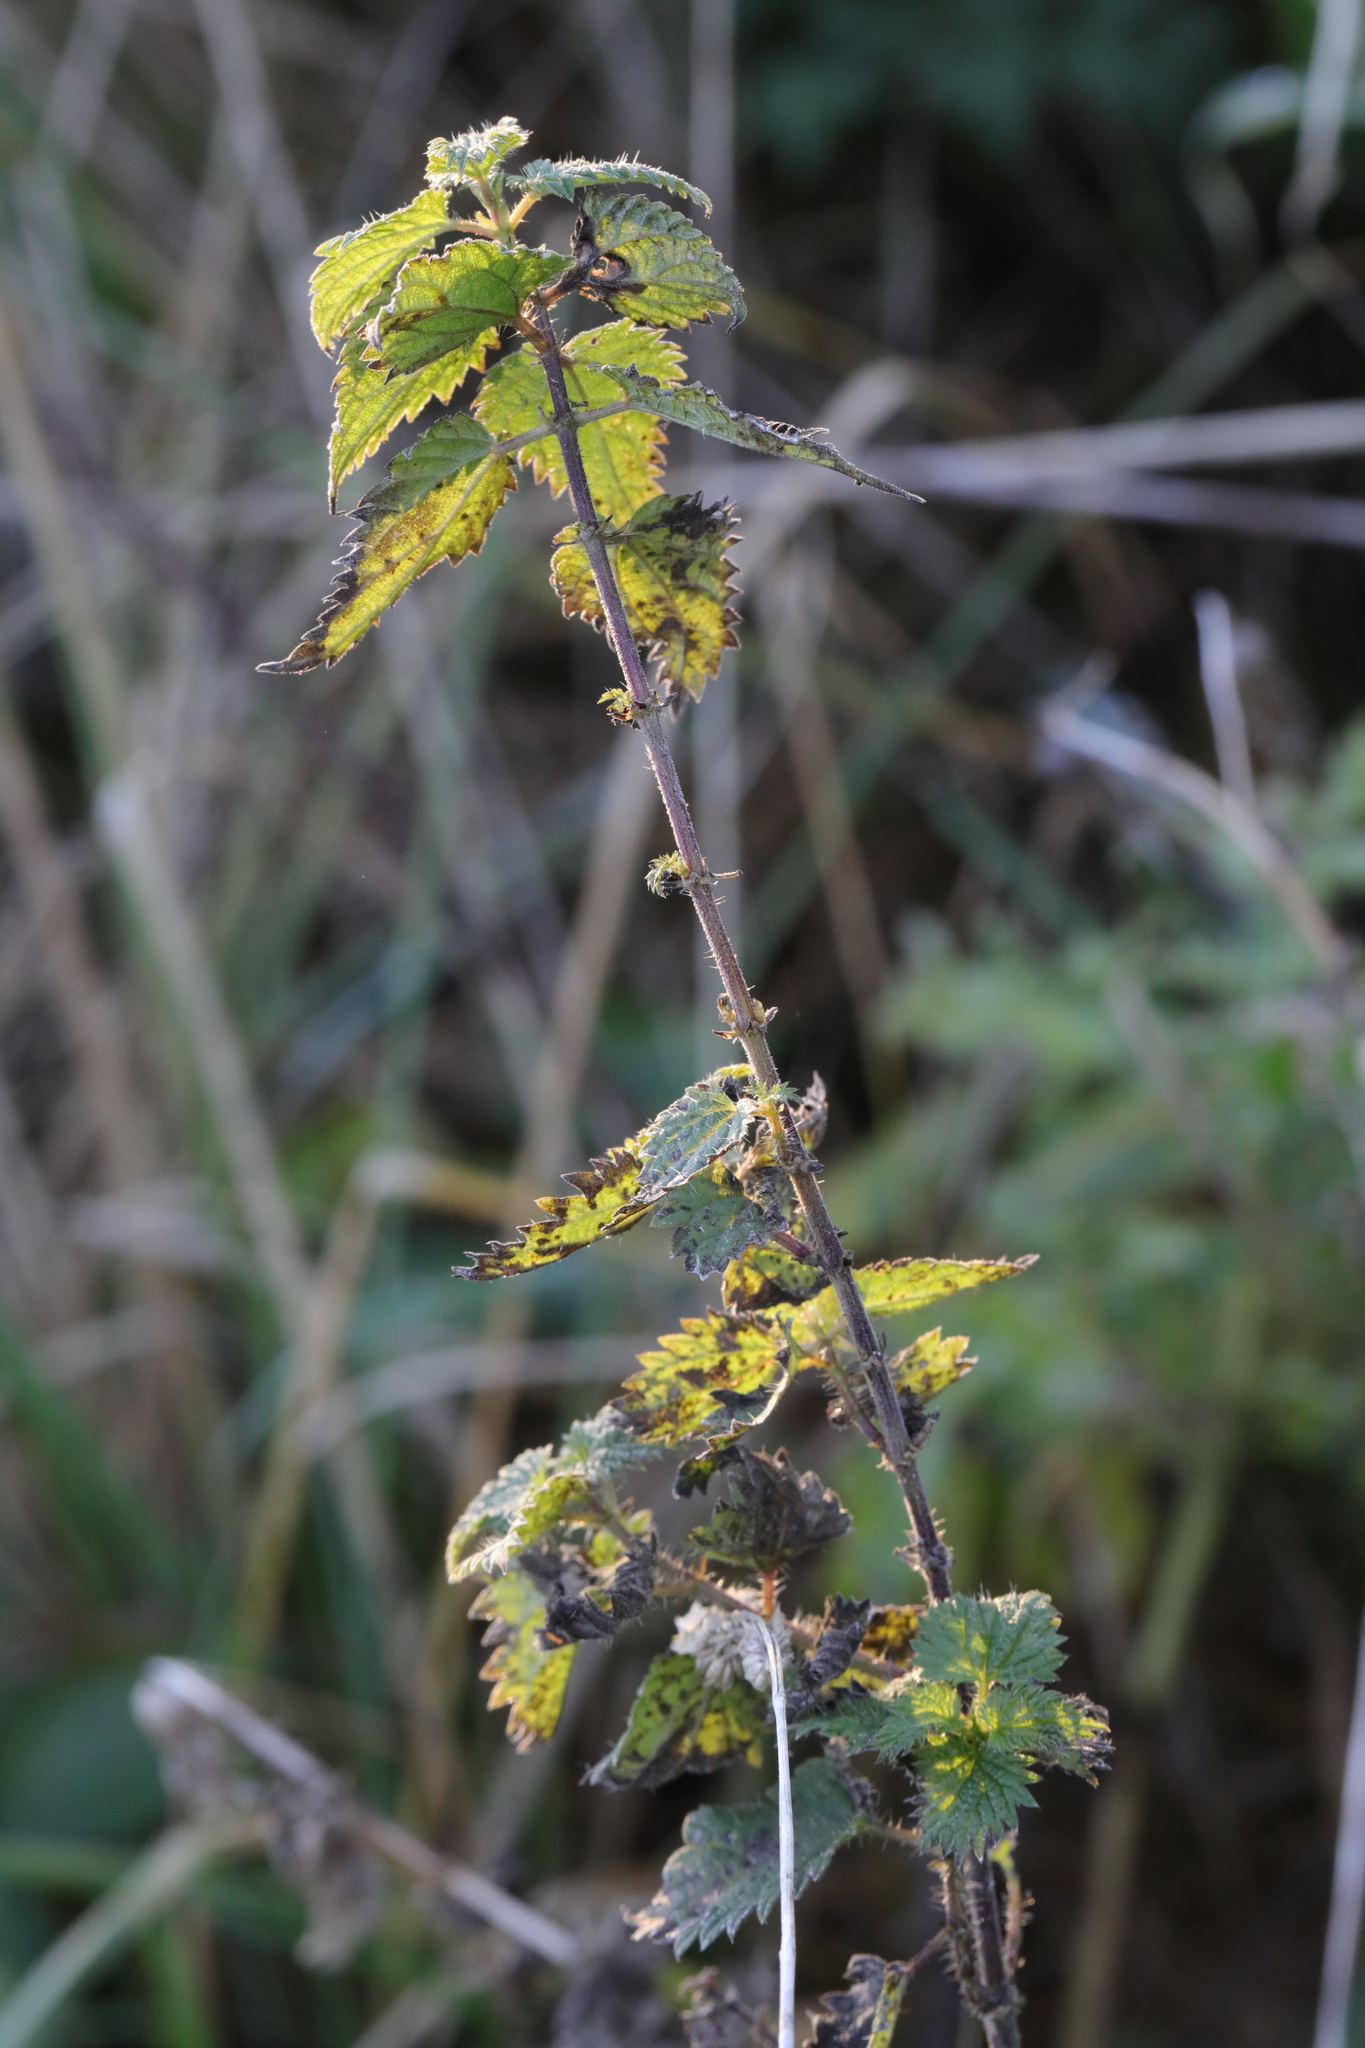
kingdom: Plantae
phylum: Tracheophyta
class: Magnoliopsida
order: Rosales
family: Urticaceae
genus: Urtica
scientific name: Urtica dioica
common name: Common nettle
